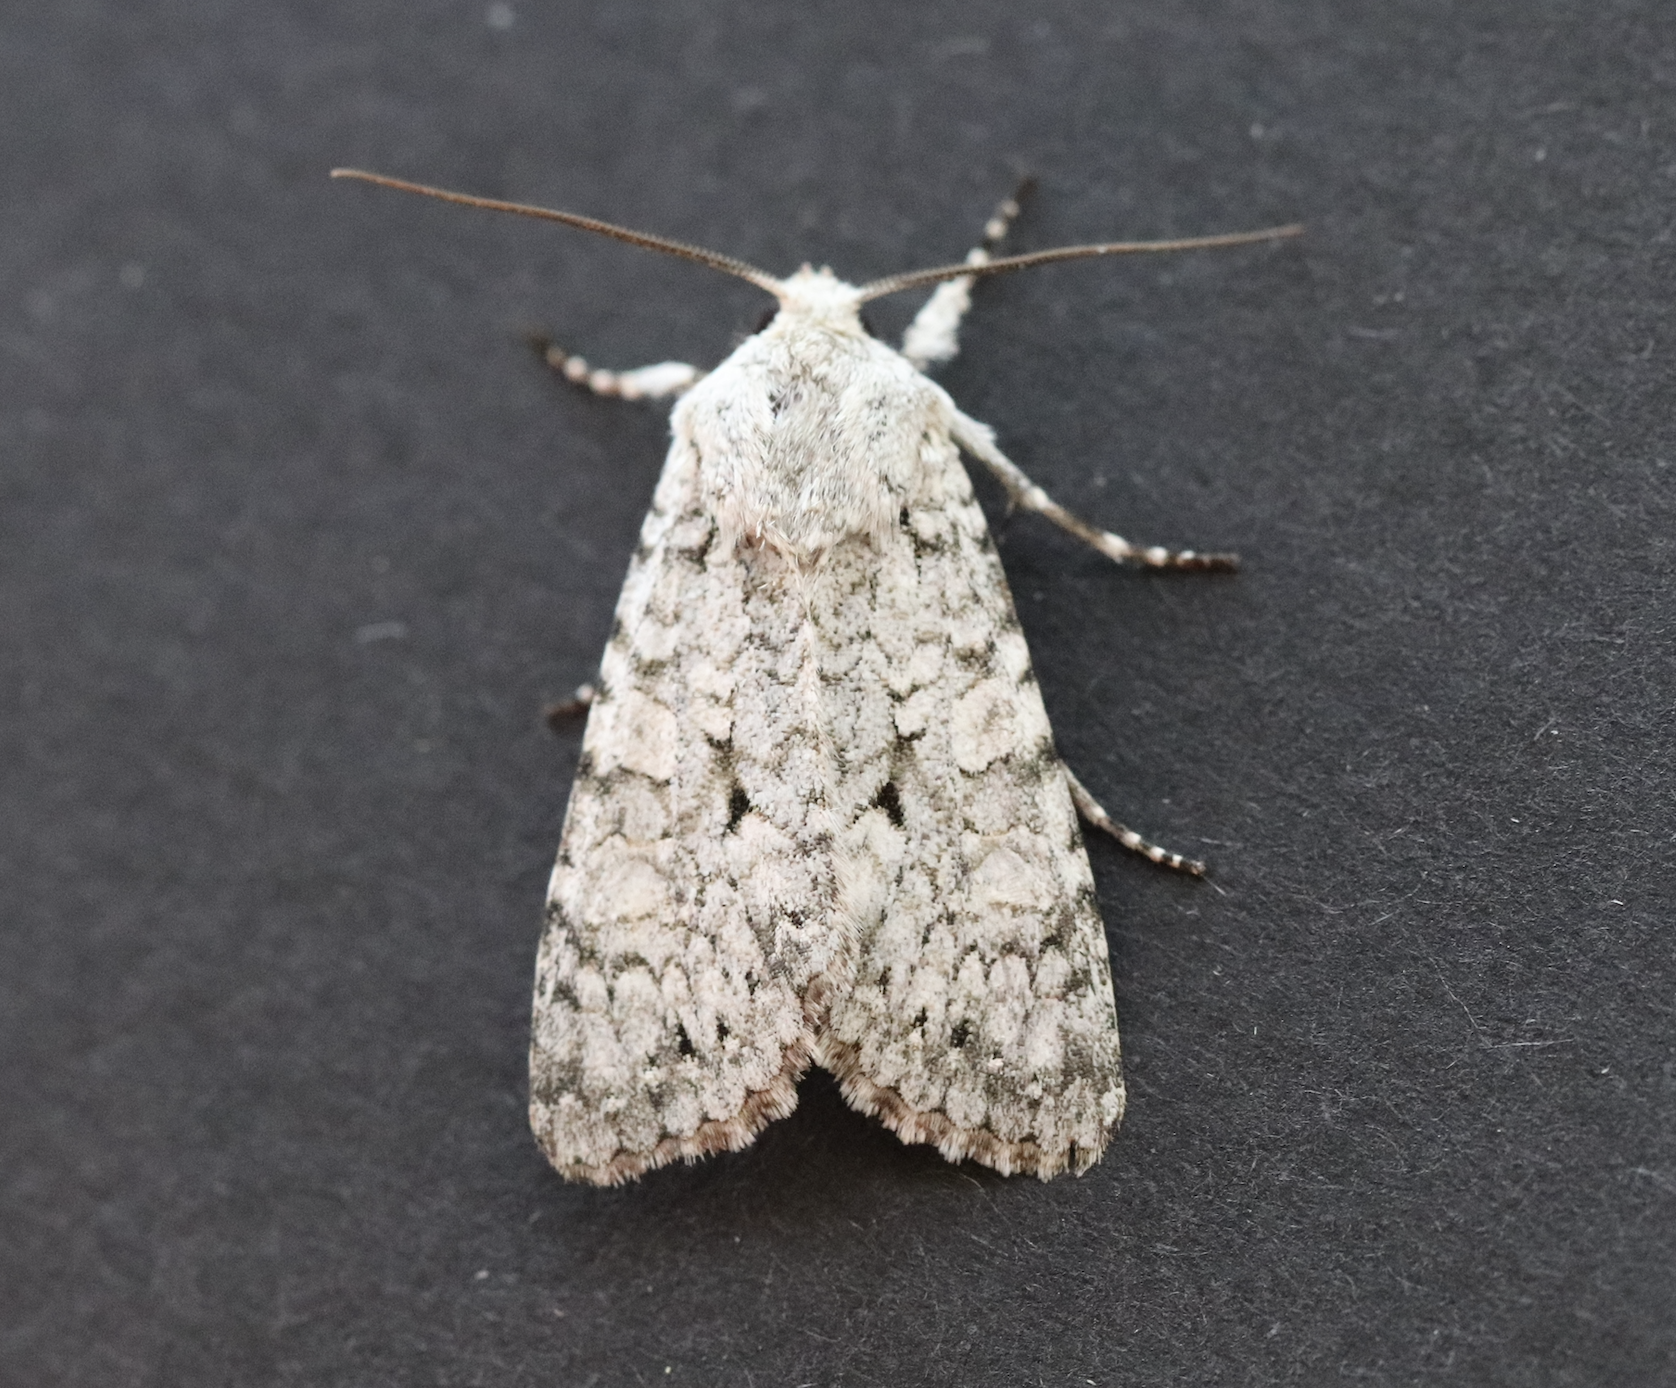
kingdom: Animalia
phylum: Arthropoda
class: Insecta
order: Lepidoptera
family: Noctuidae
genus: Antitype
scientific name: Antitype chi
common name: Grey chi
